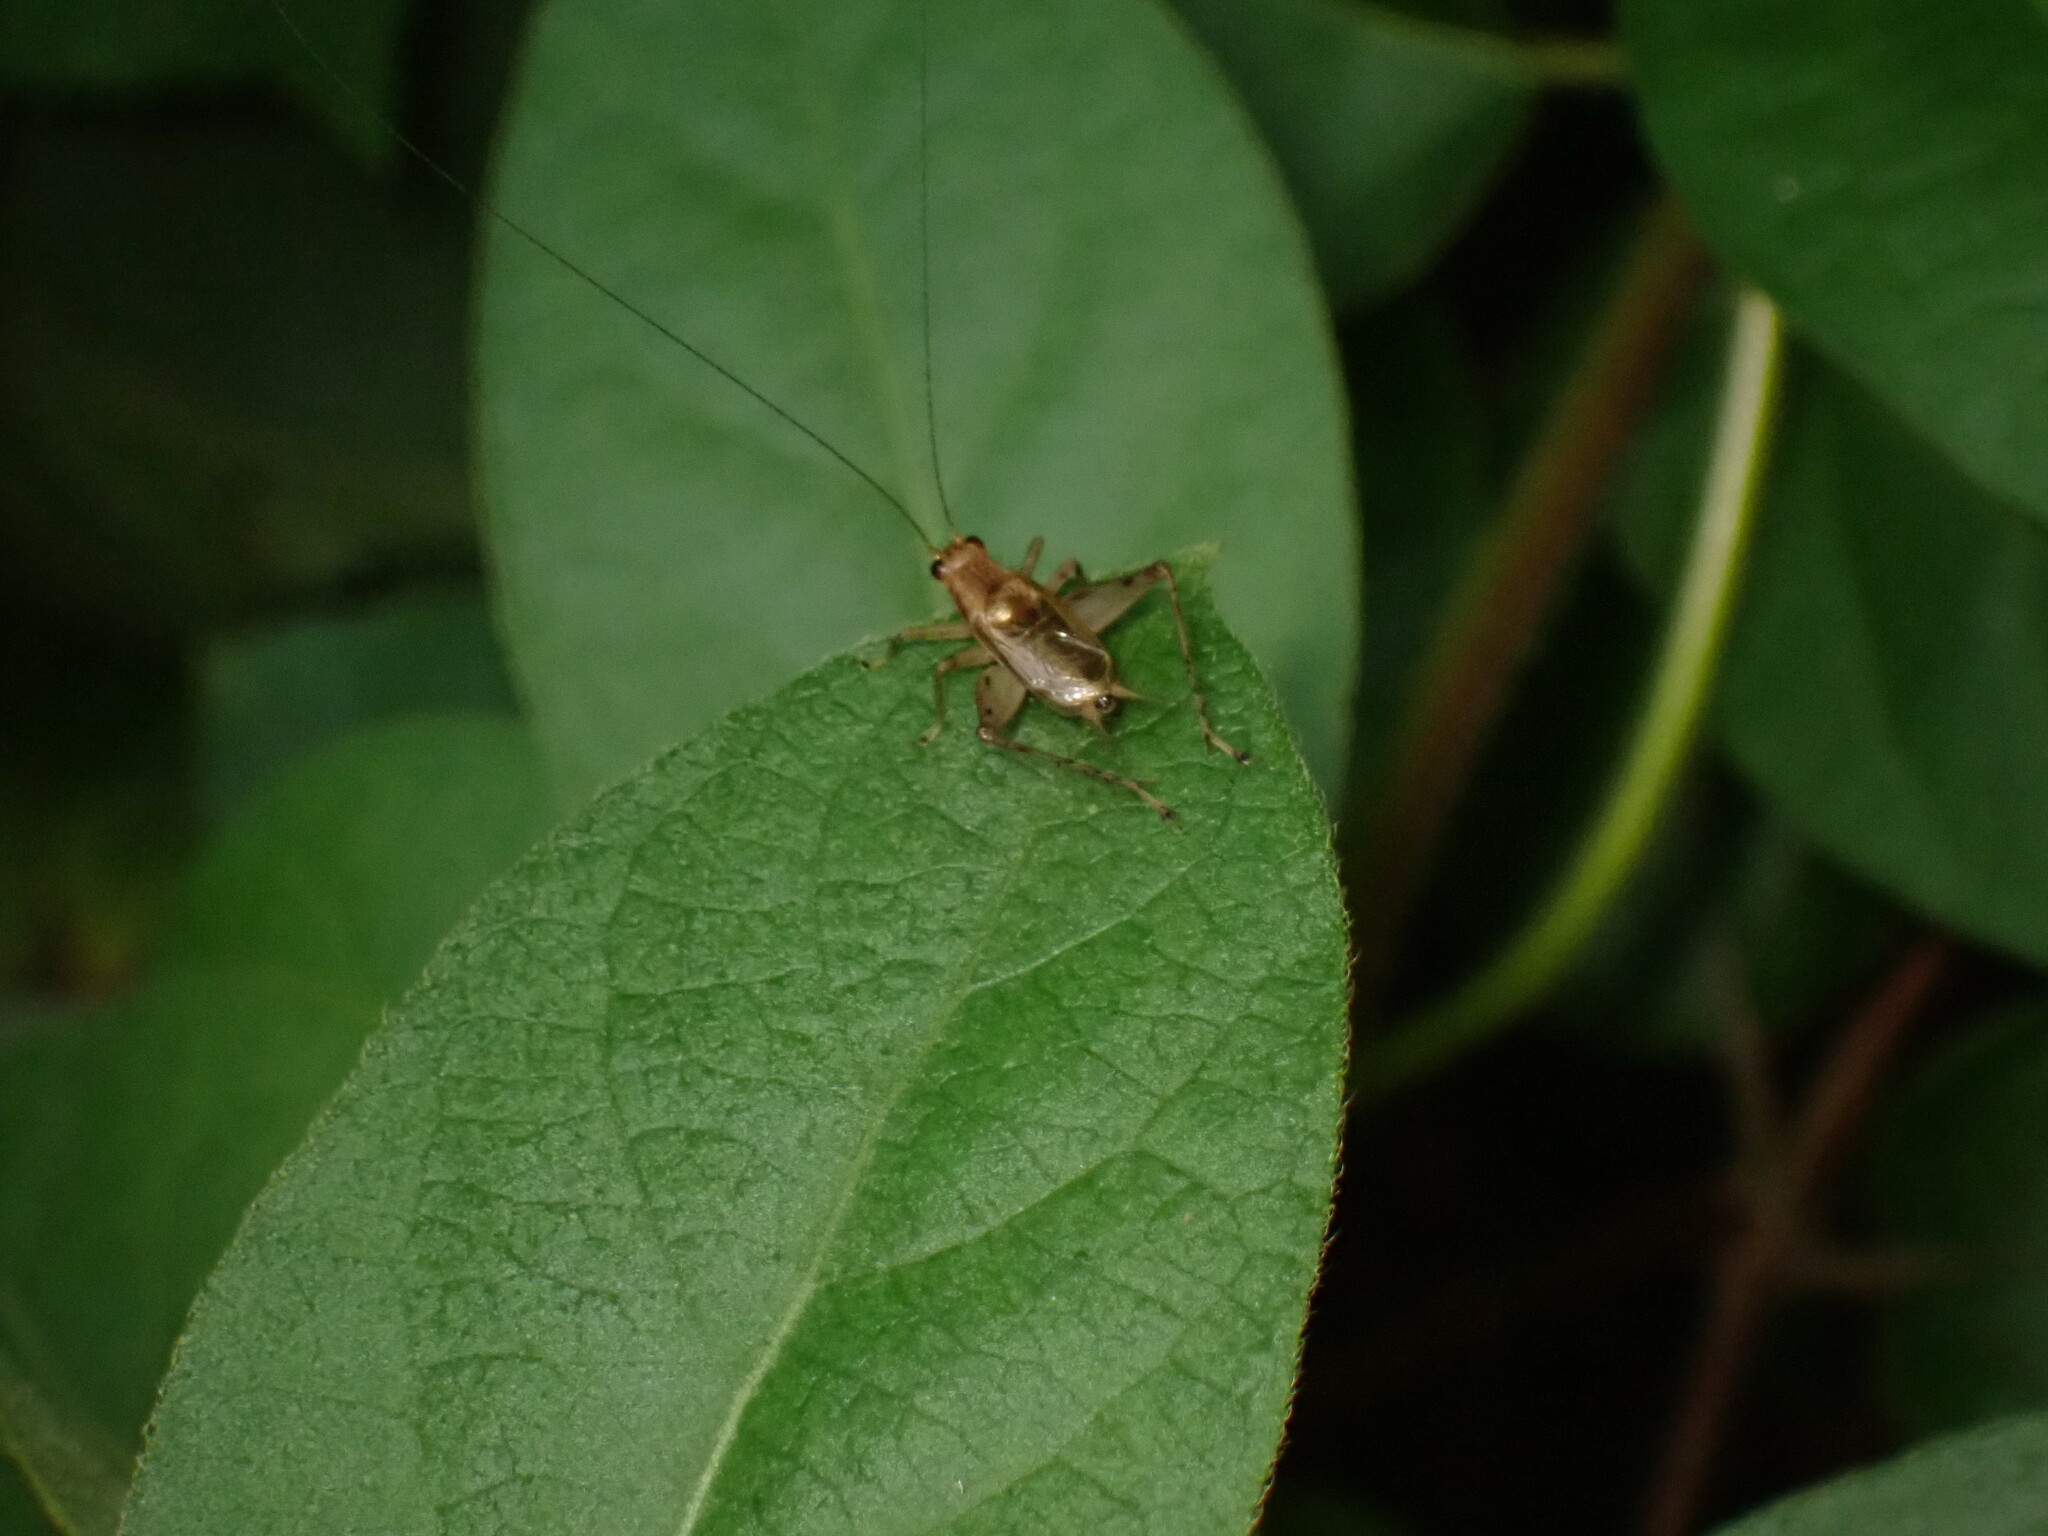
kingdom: Animalia
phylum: Arthropoda
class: Insecta
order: Orthoptera
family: Trigonidiidae
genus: Anaxipha
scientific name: Anaxipha exigua
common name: Say's bush cricket
